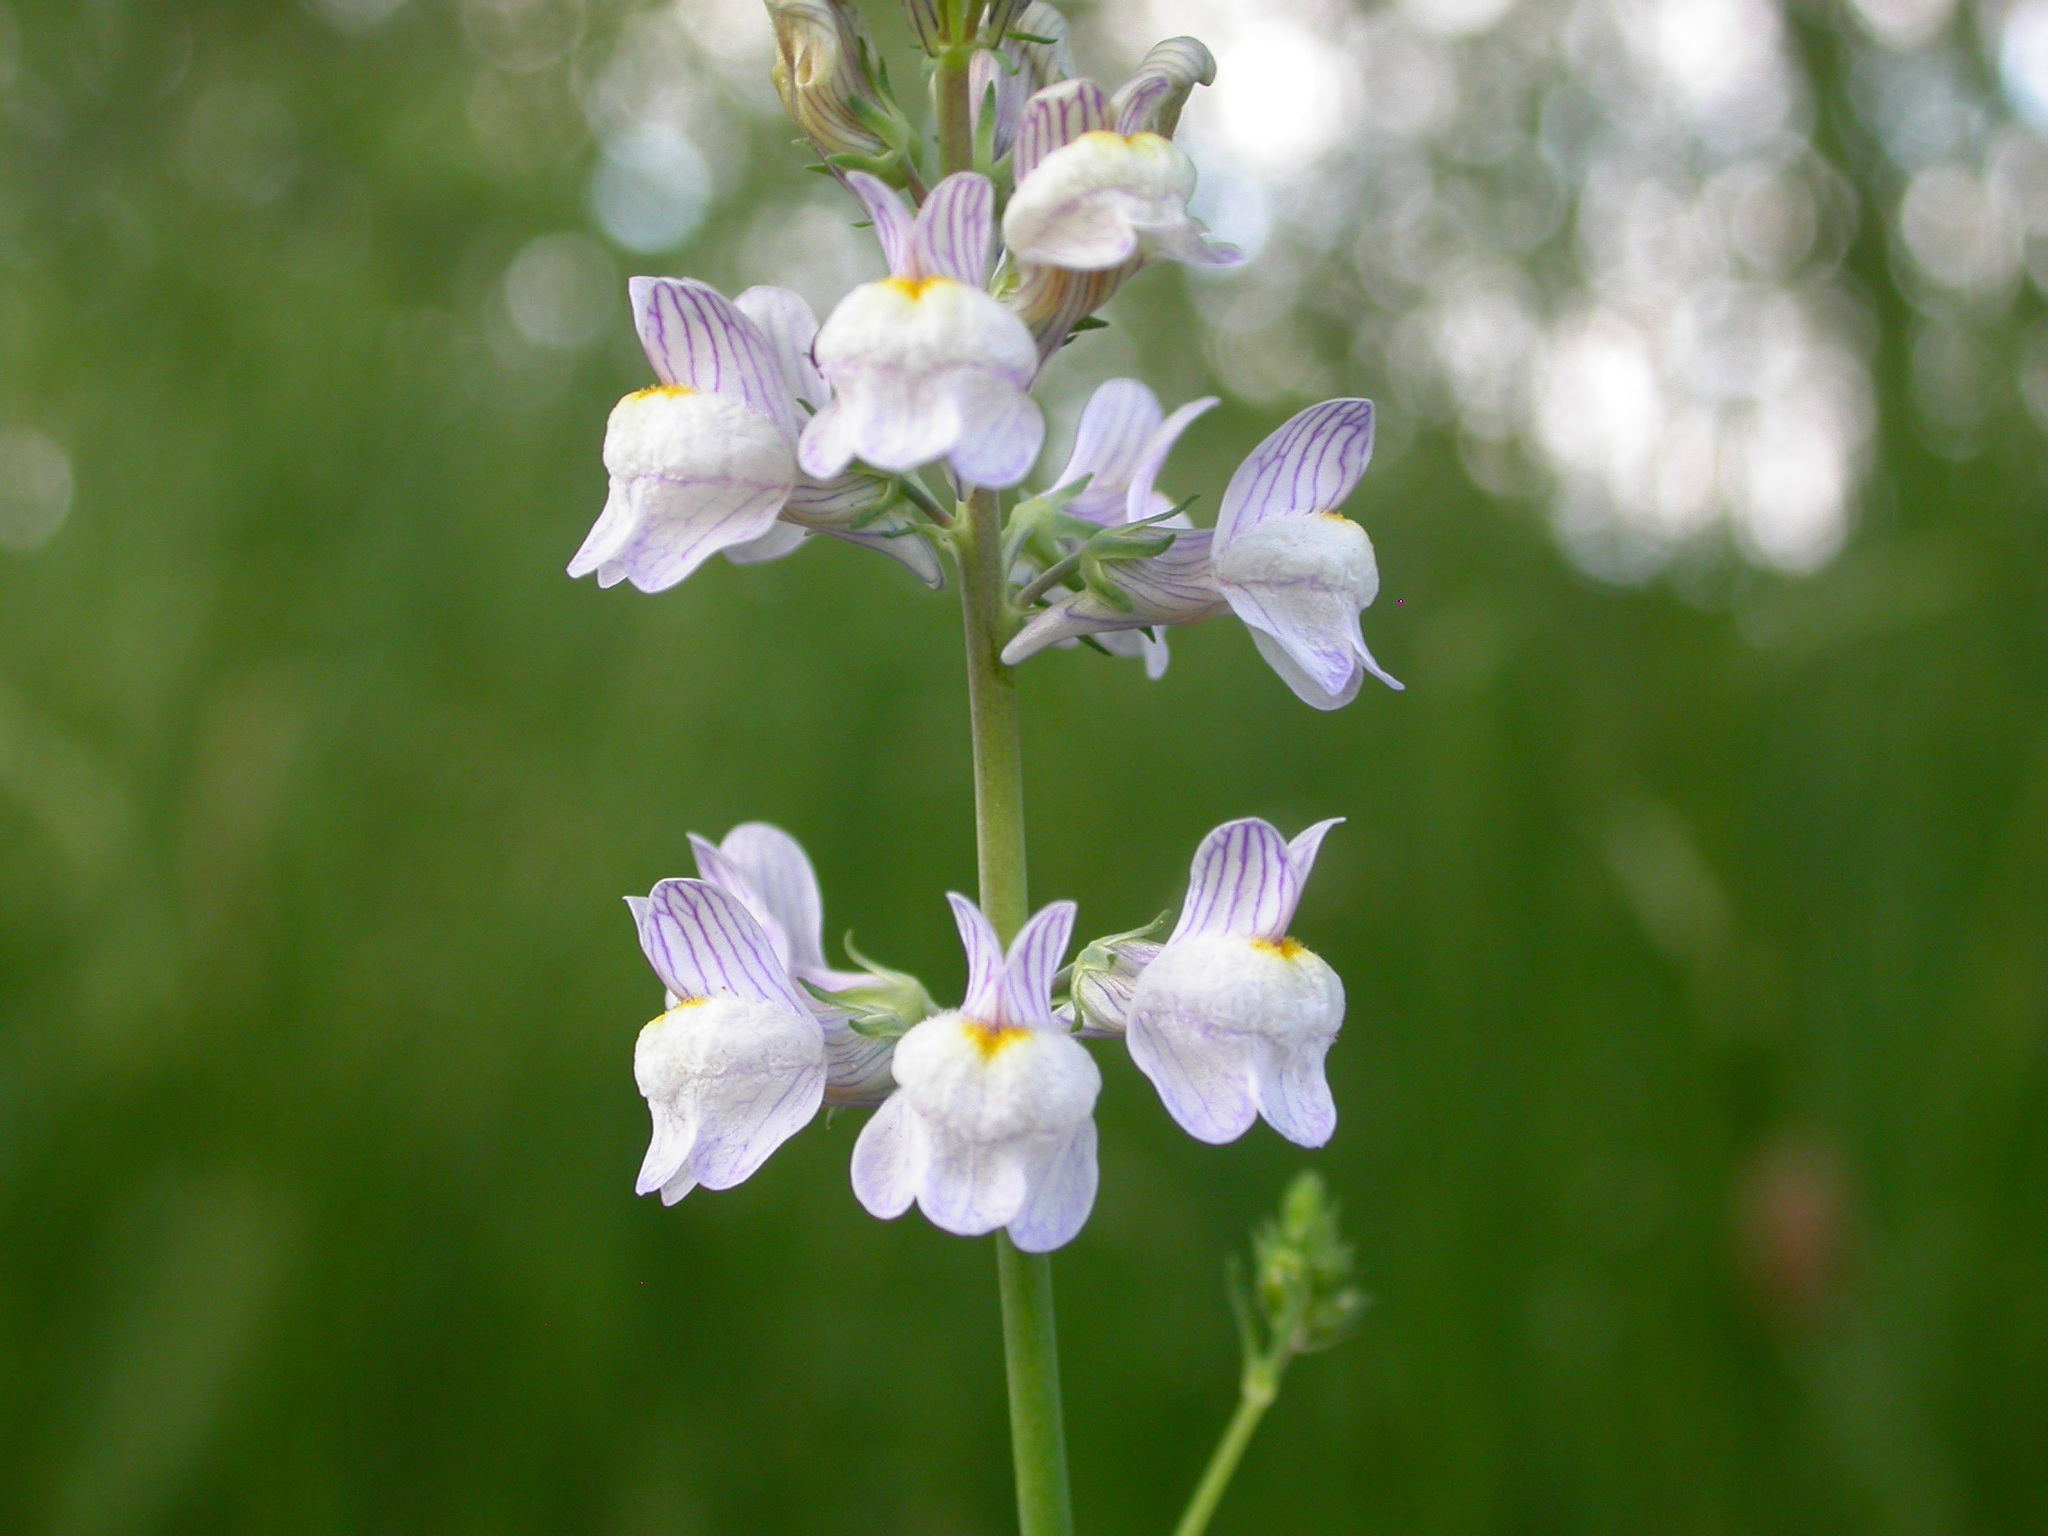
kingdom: Plantae
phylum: Tracheophyta
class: Magnoliopsida
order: Lamiales
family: Plantaginaceae
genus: Linaria
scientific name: Linaria repens
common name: Pale toadflax
